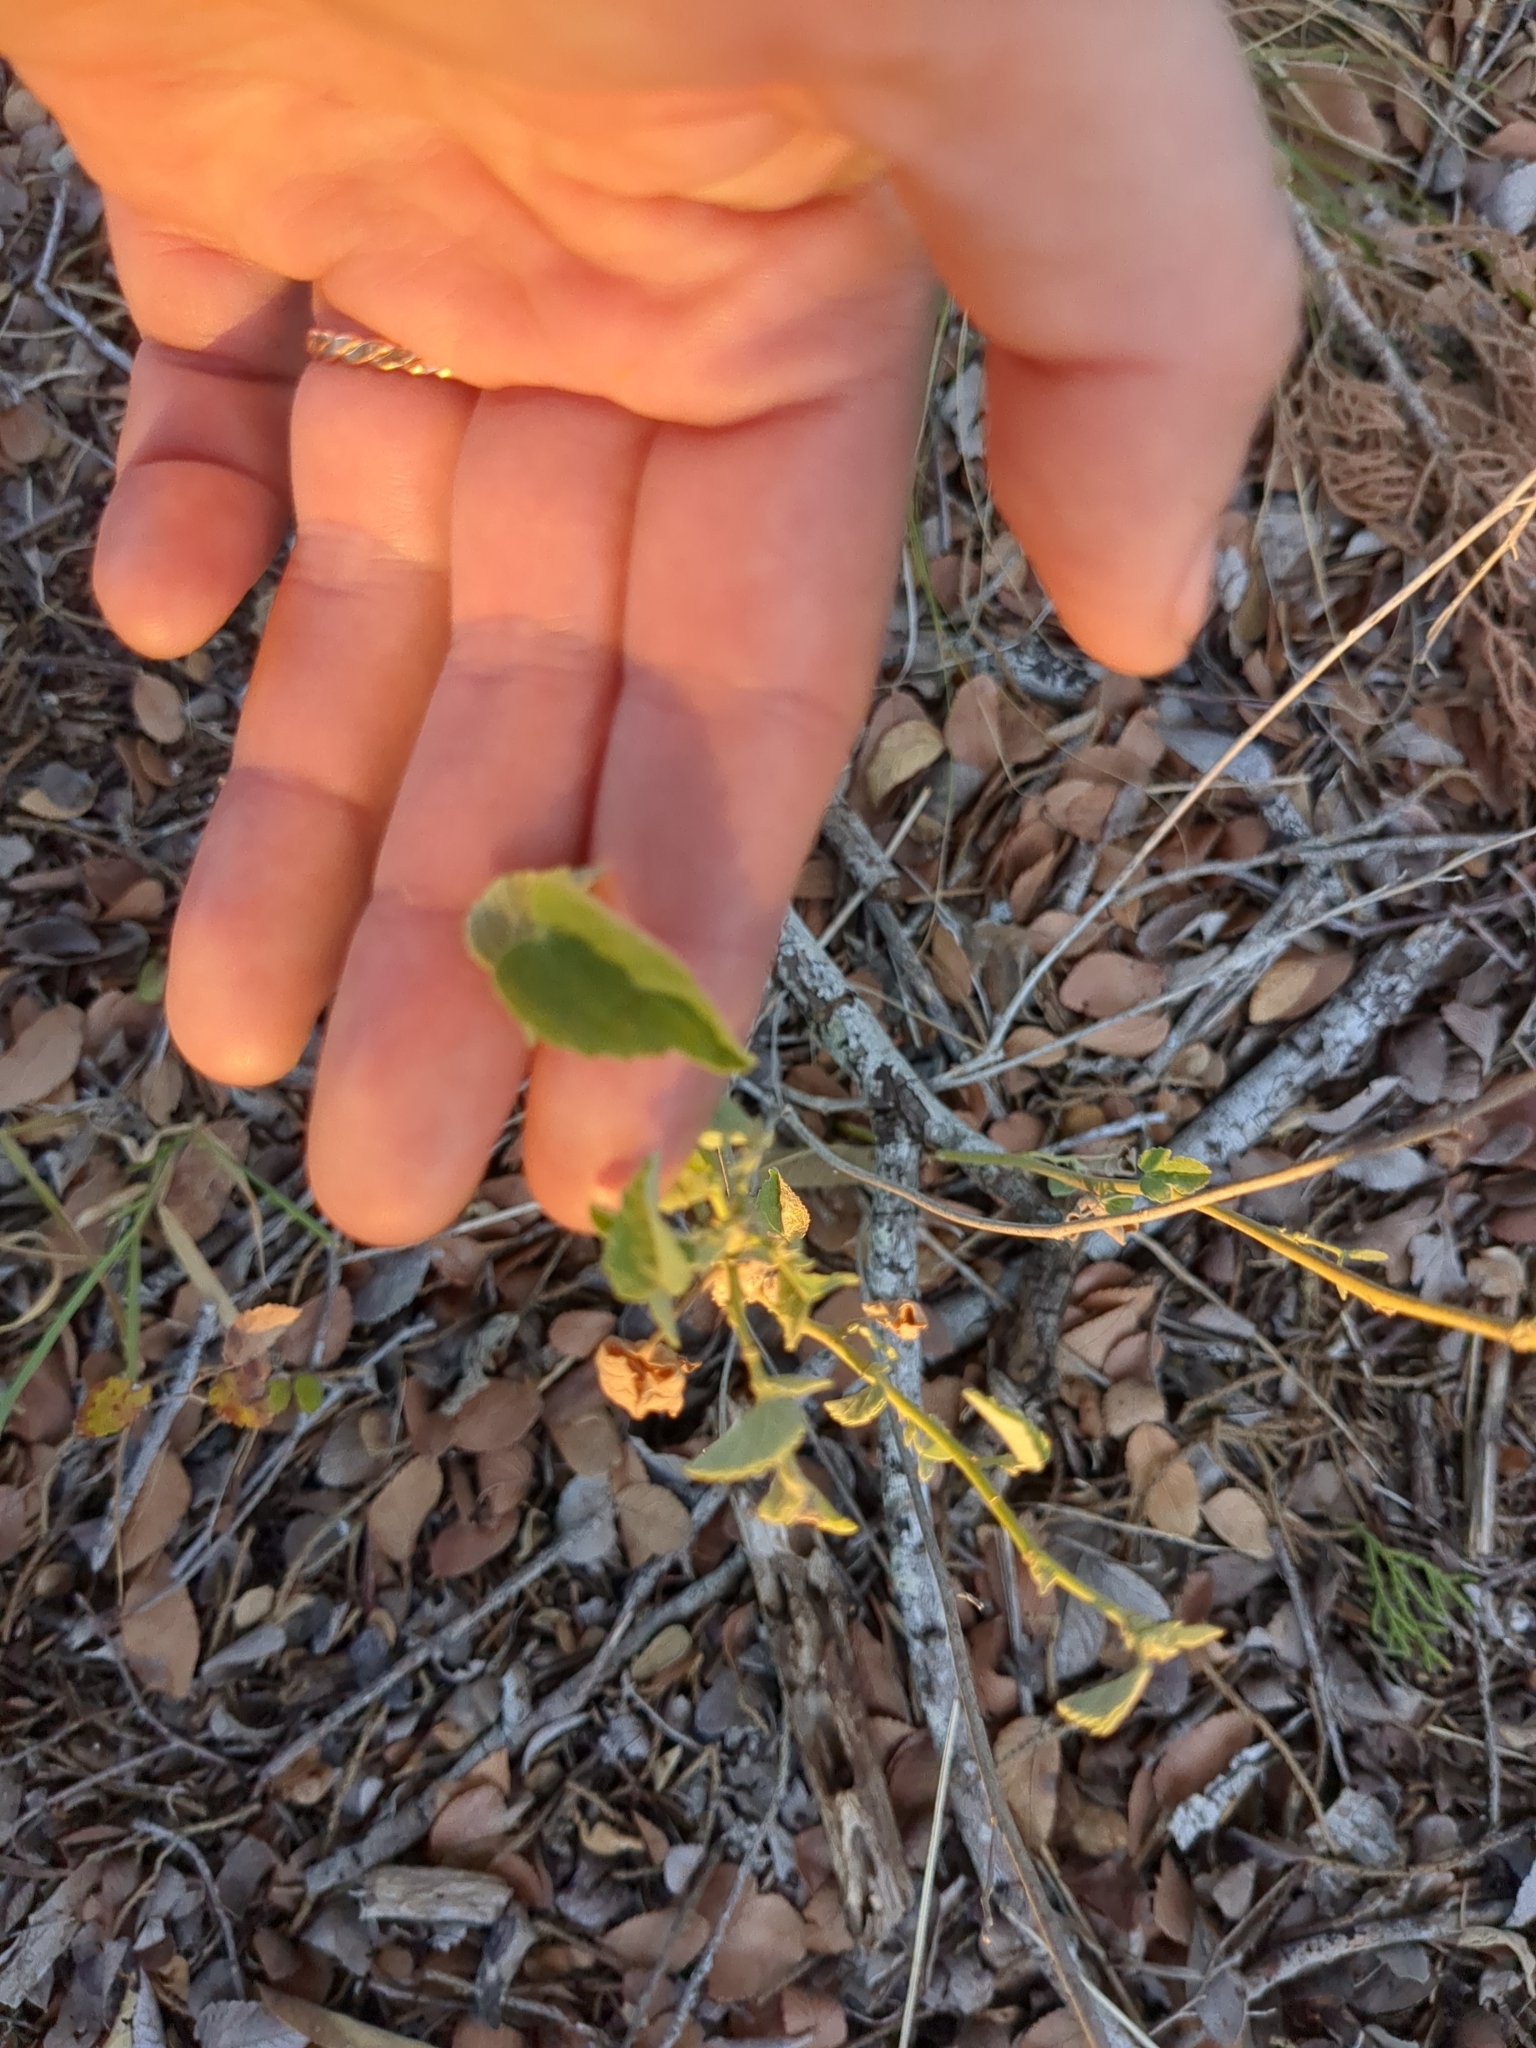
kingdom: Plantae
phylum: Tracheophyta
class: Magnoliopsida
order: Malvales
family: Malvaceae
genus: Abutilon
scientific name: Abutilon fruticosum
